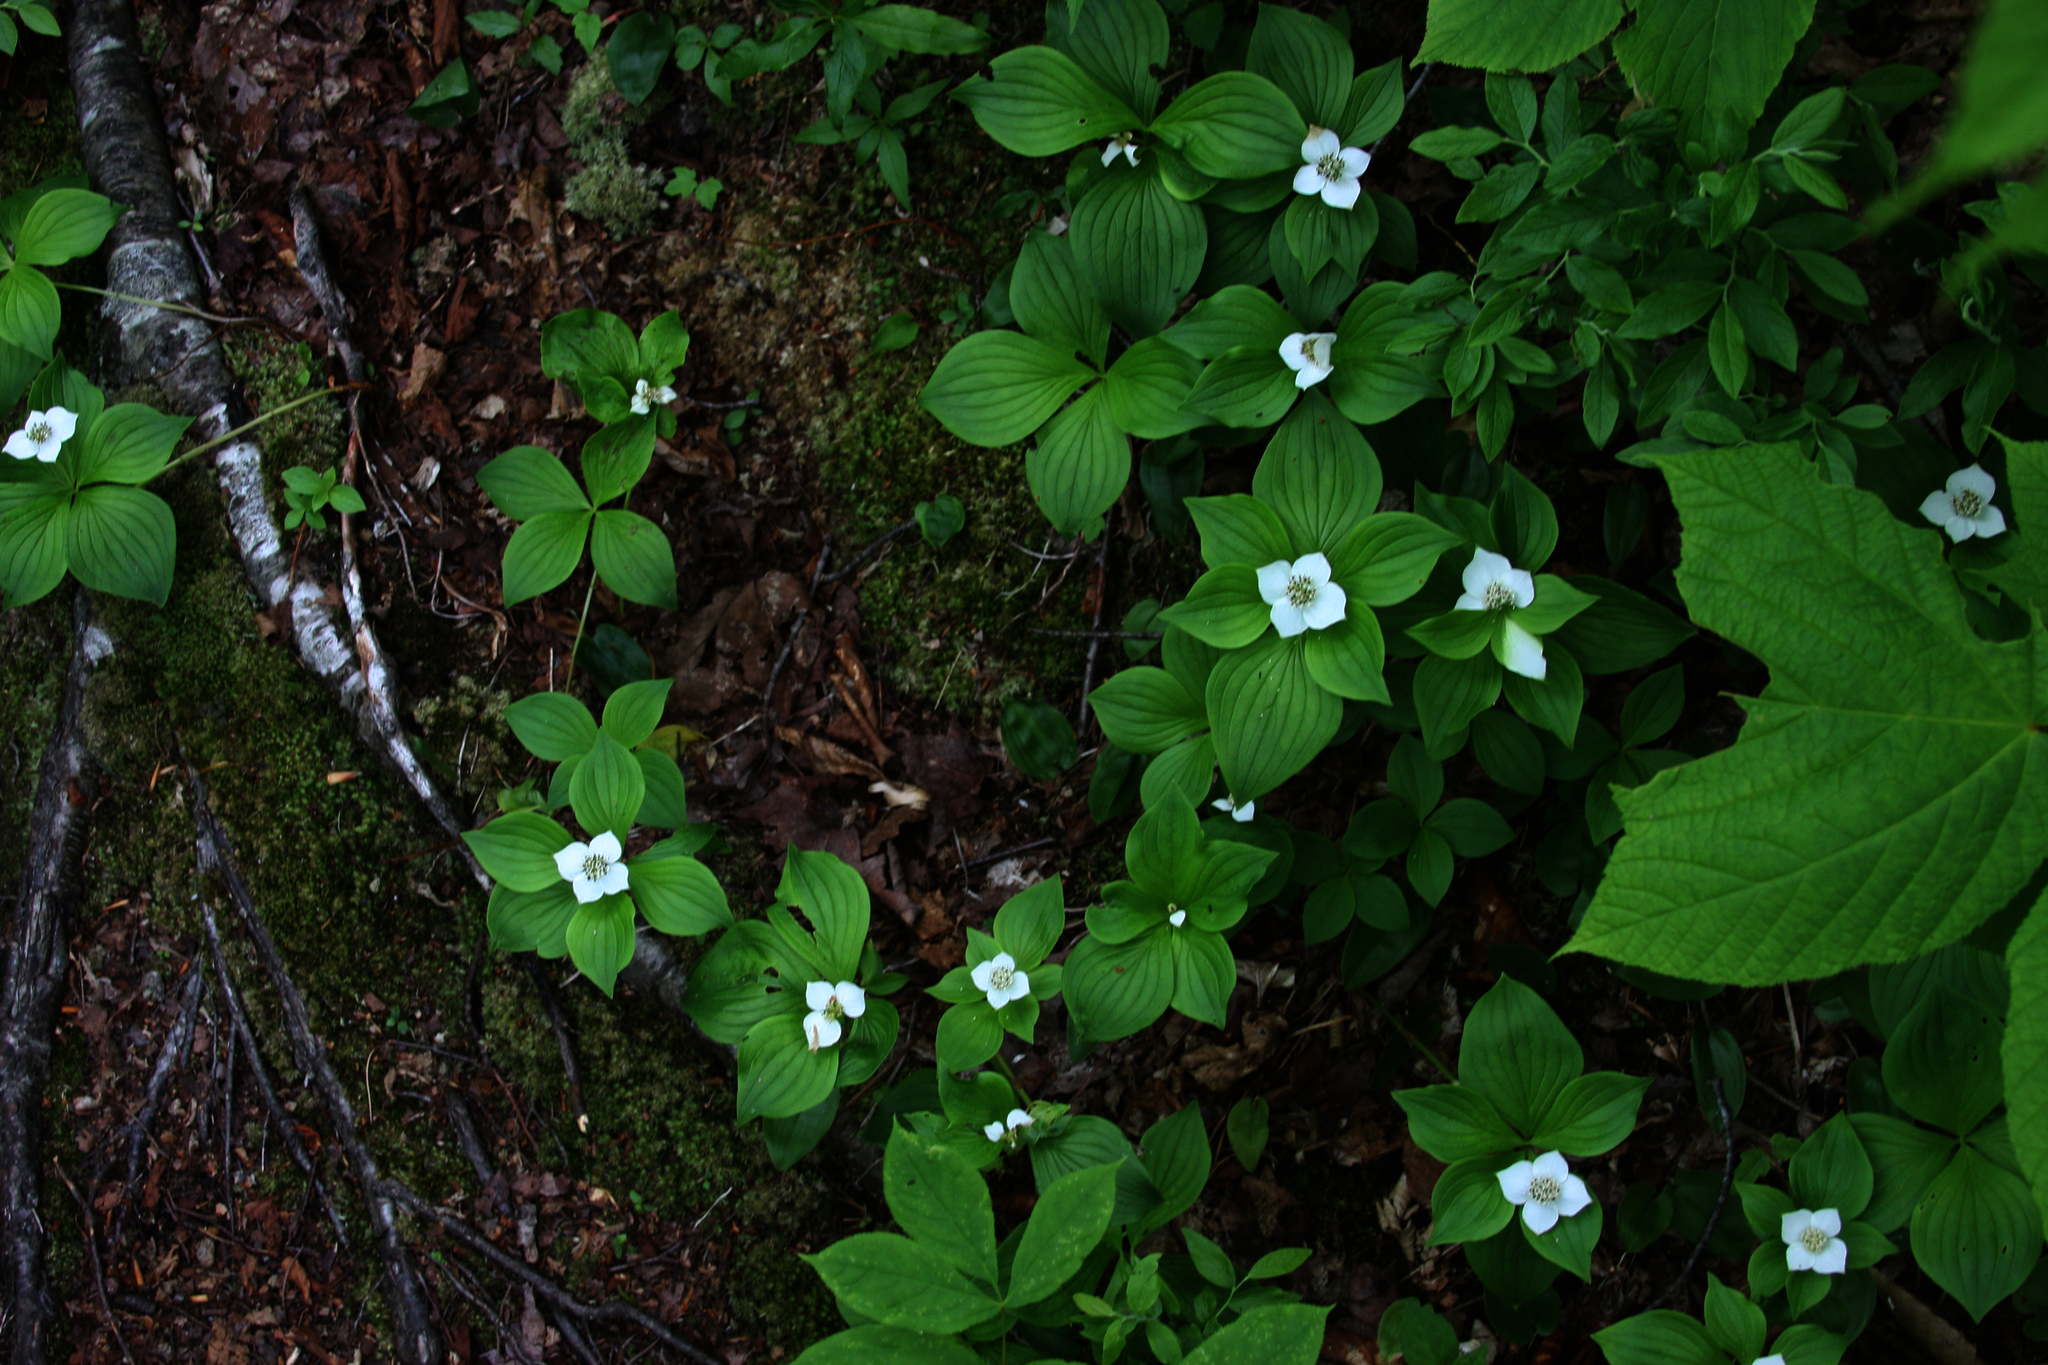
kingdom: Plantae
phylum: Tracheophyta
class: Magnoliopsida
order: Cornales
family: Cornaceae
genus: Cornus
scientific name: Cornus canadensis
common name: Creeping dogwood
